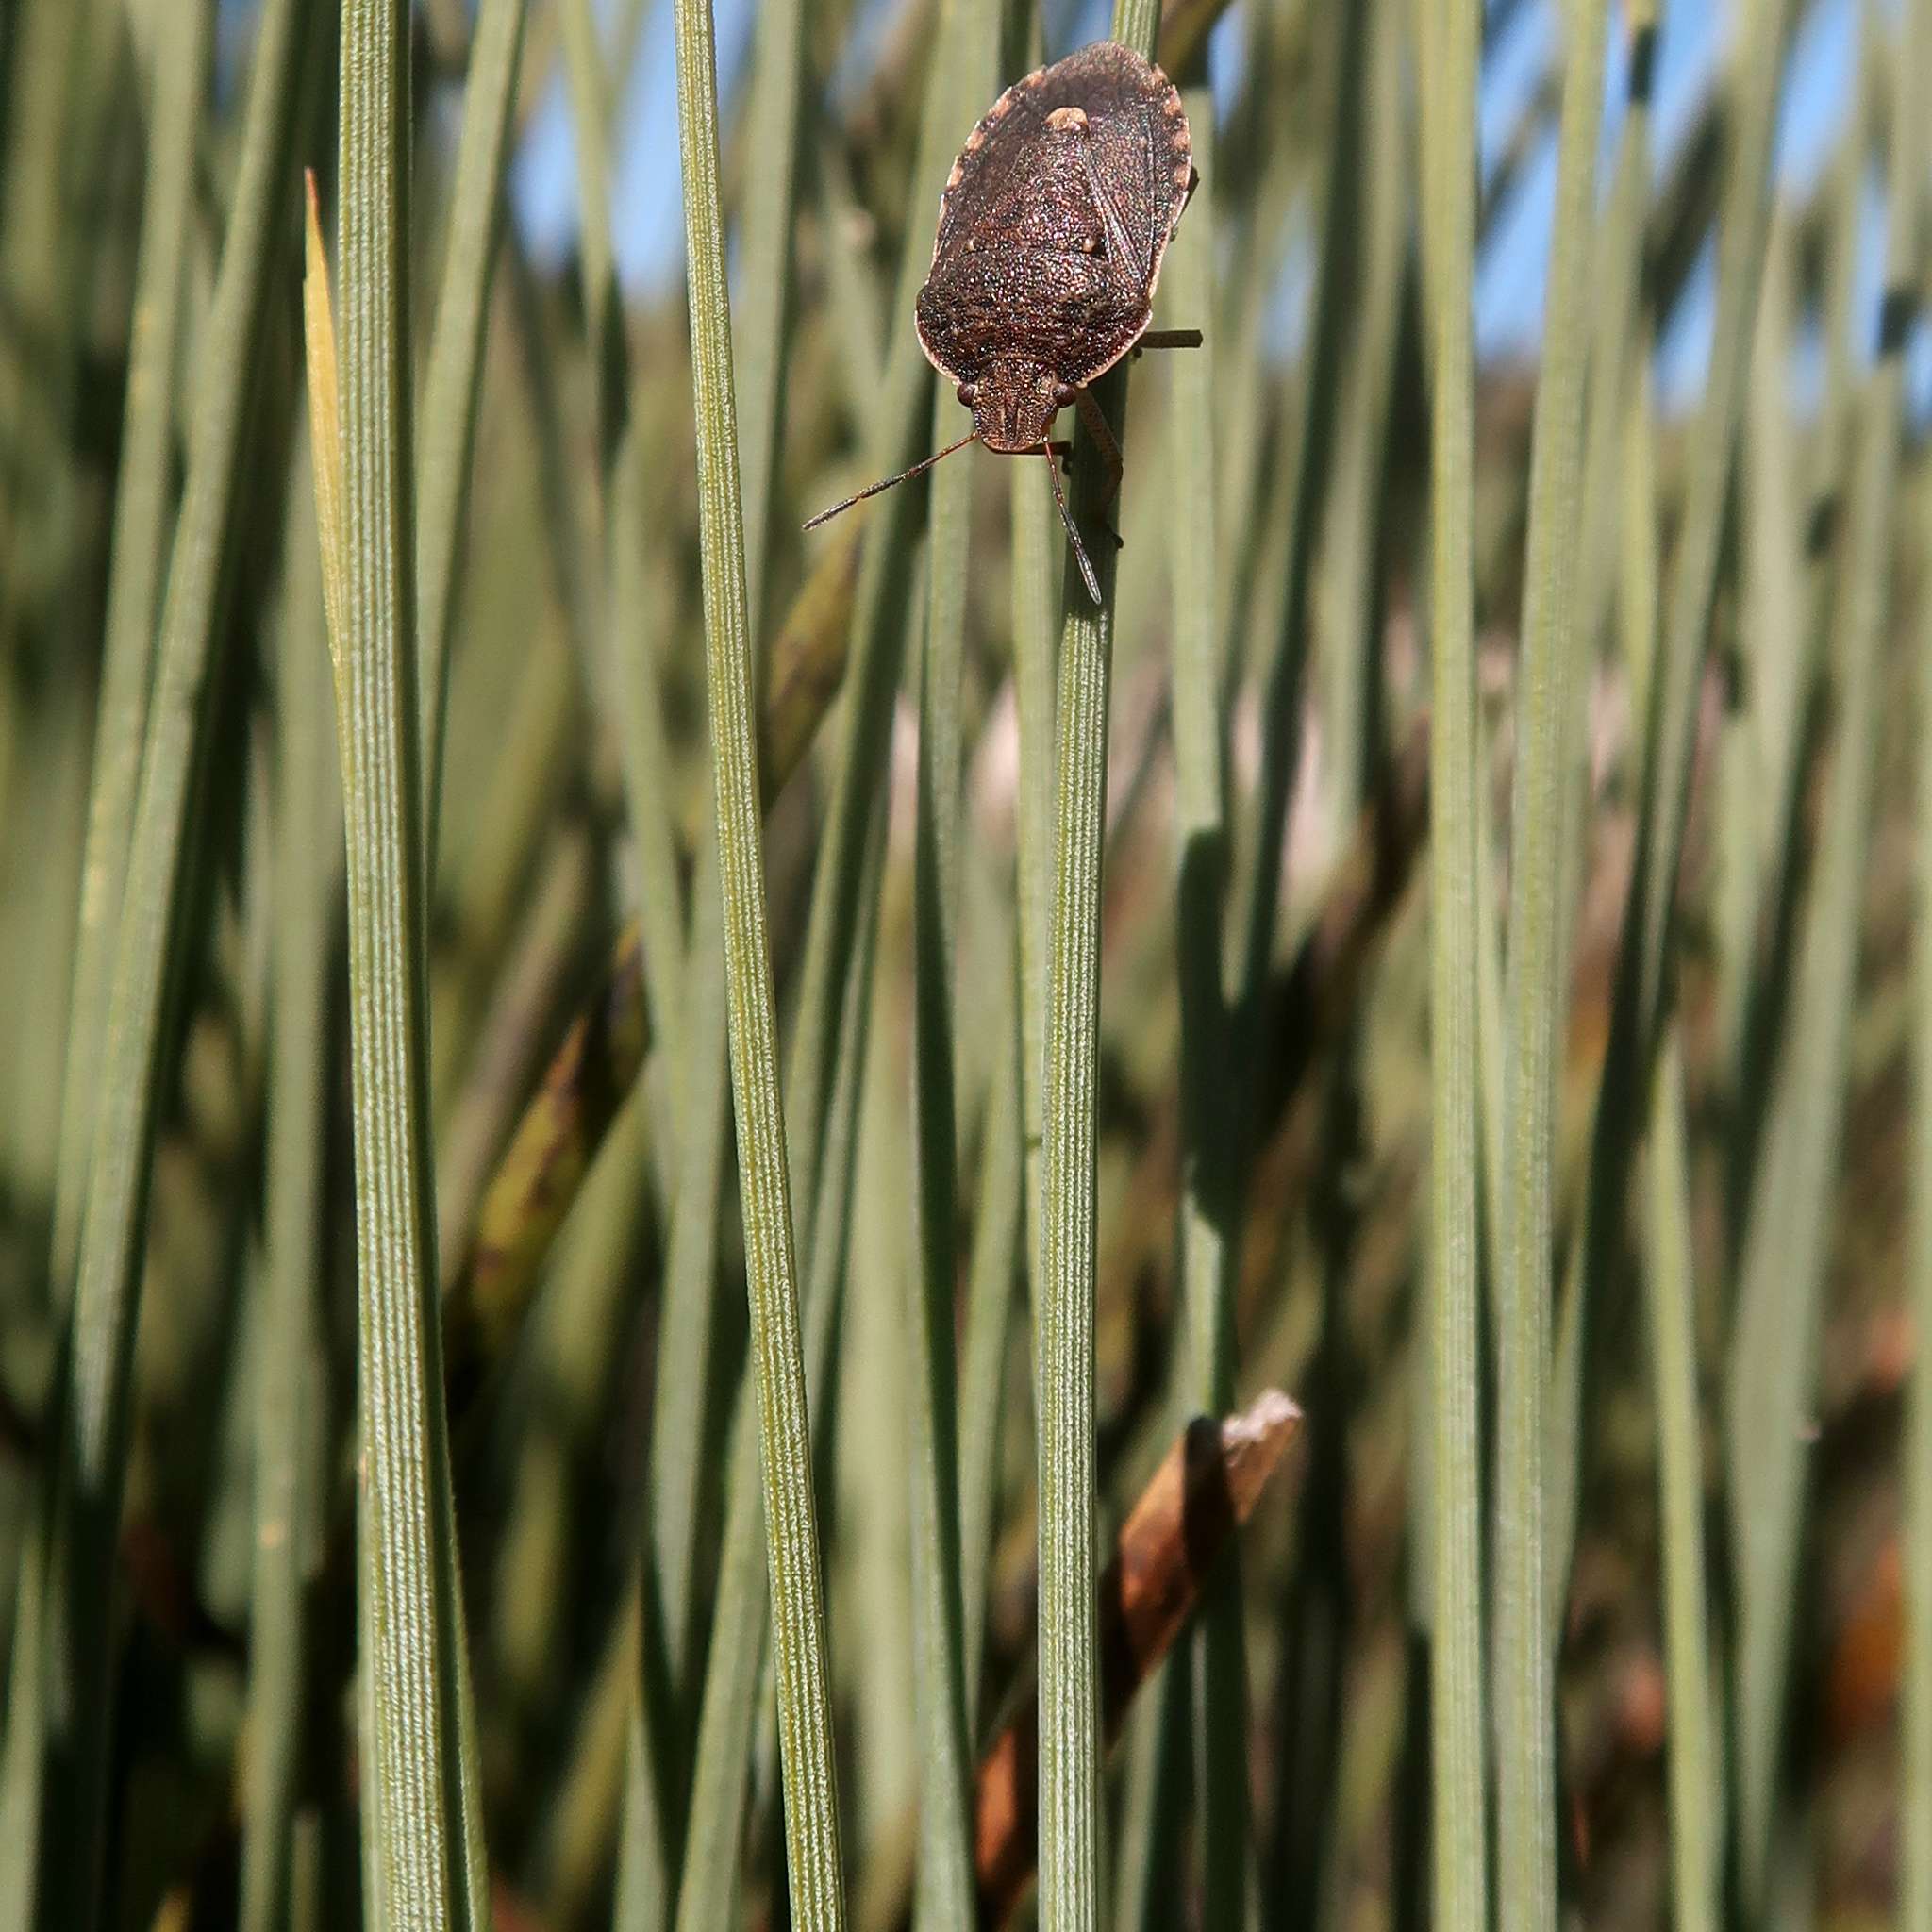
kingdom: Plantae
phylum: Tracheophyta
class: Liliopsida
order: Asparagales
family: Asphodelaceae
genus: Xanthorrhoea
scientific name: Xanthorrhoea australis
